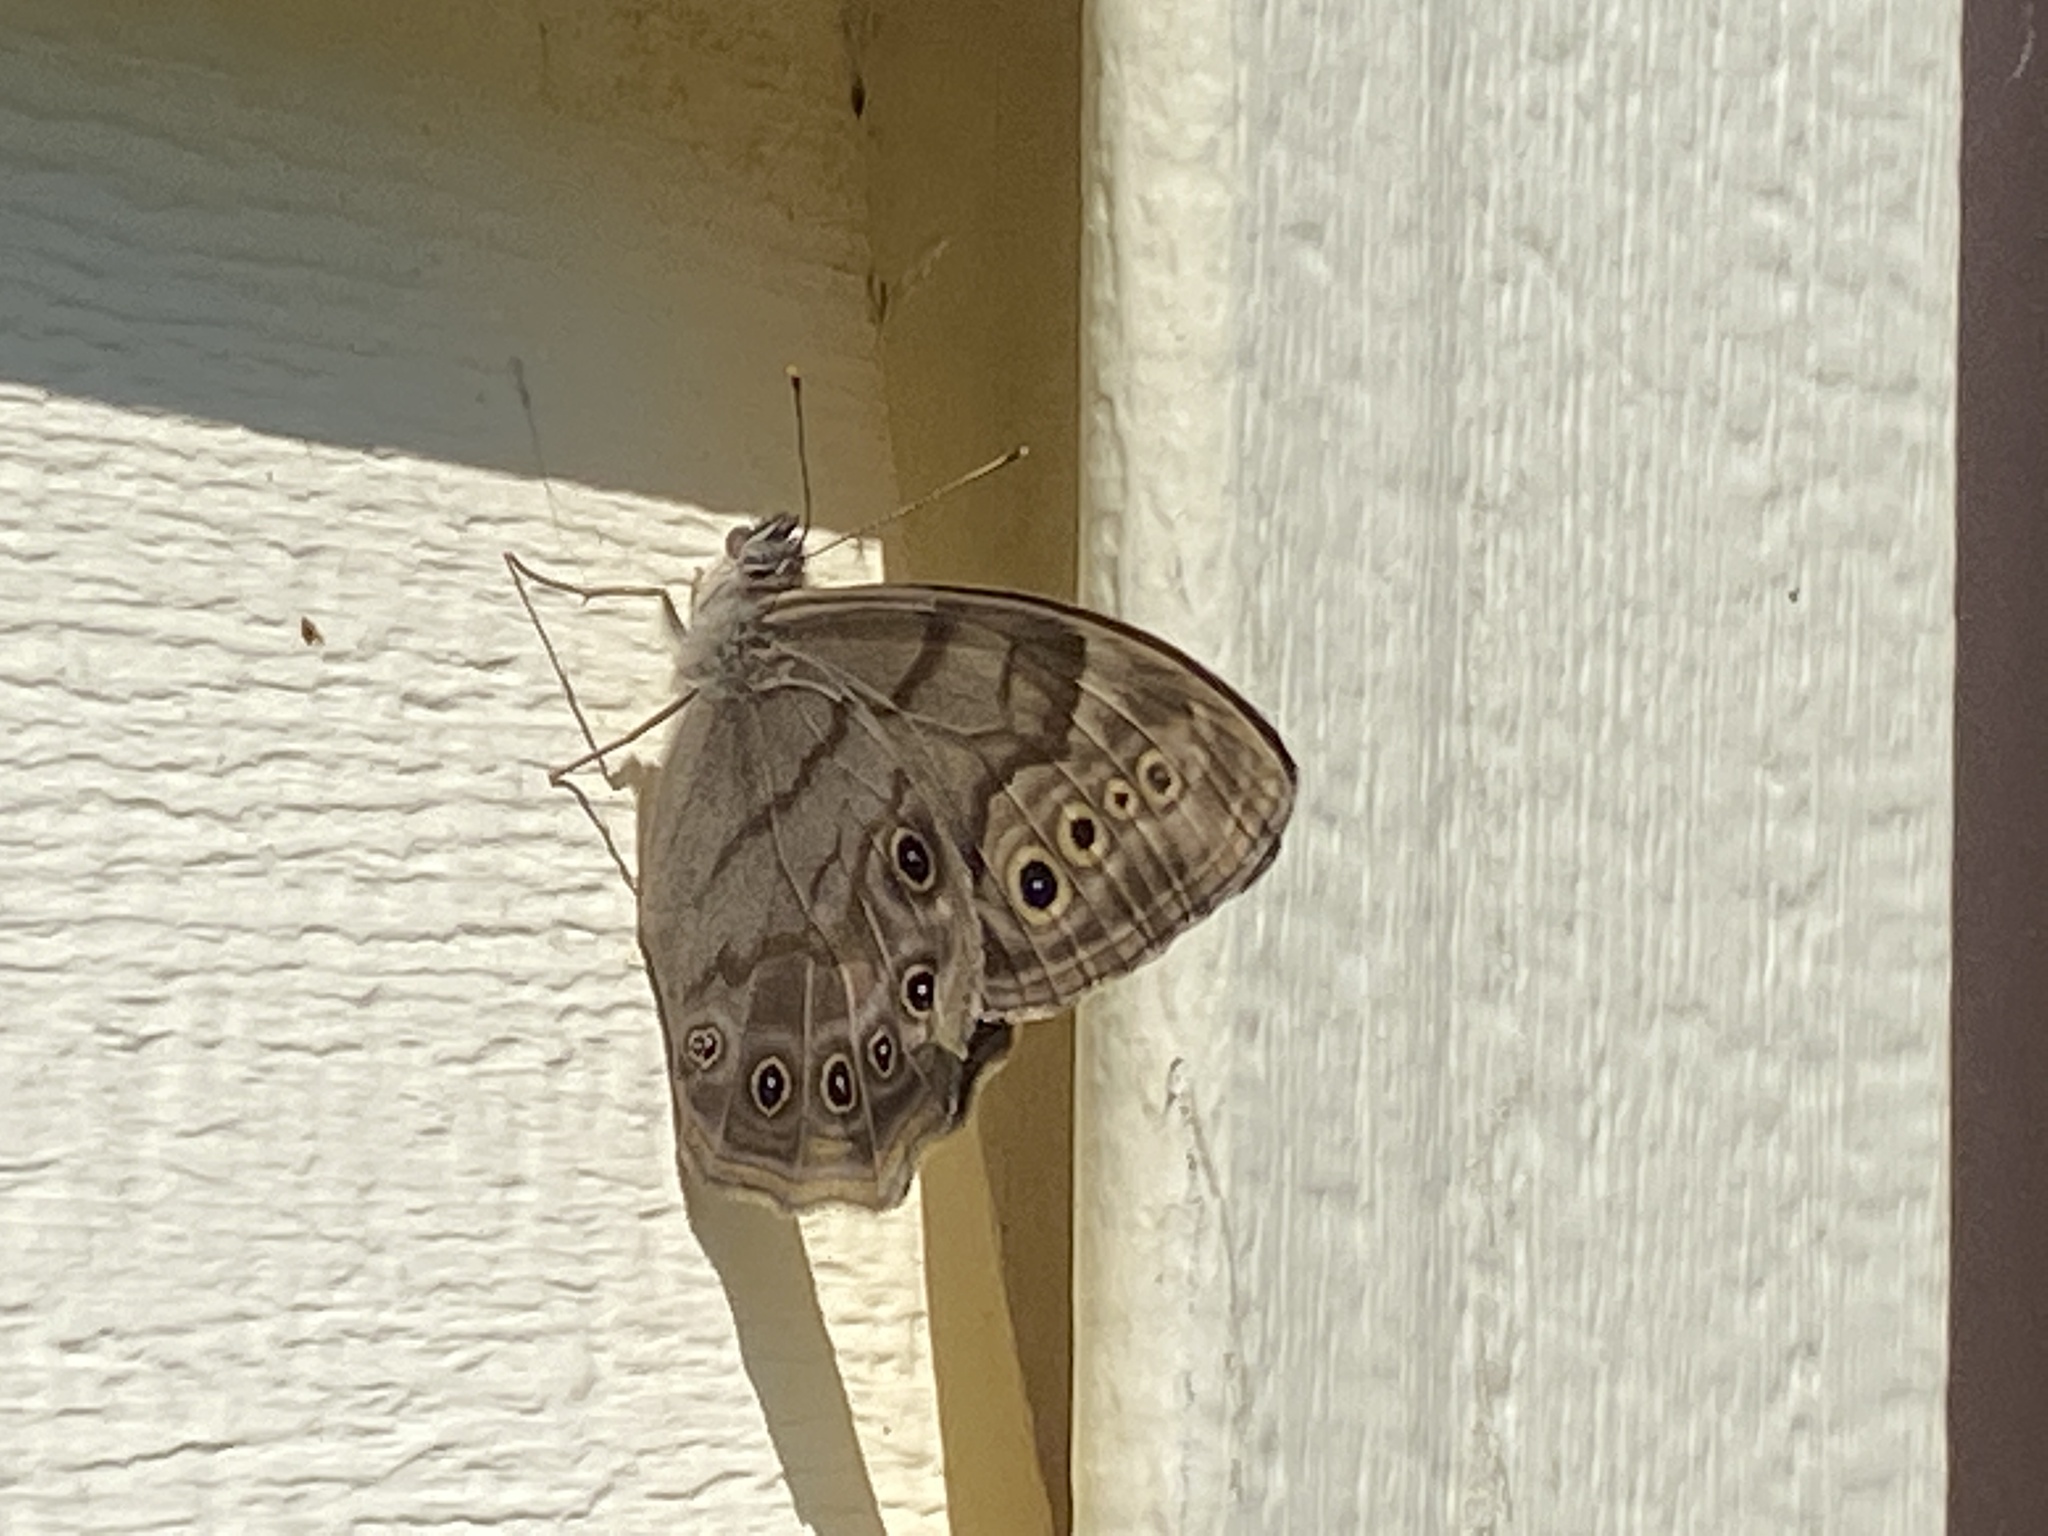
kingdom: Animalia
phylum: Arthropoda
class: Insecta
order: Lepidoptera
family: Nymphalidae
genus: Lethe
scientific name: Lethe anthedon
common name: Northern pearly-eye
